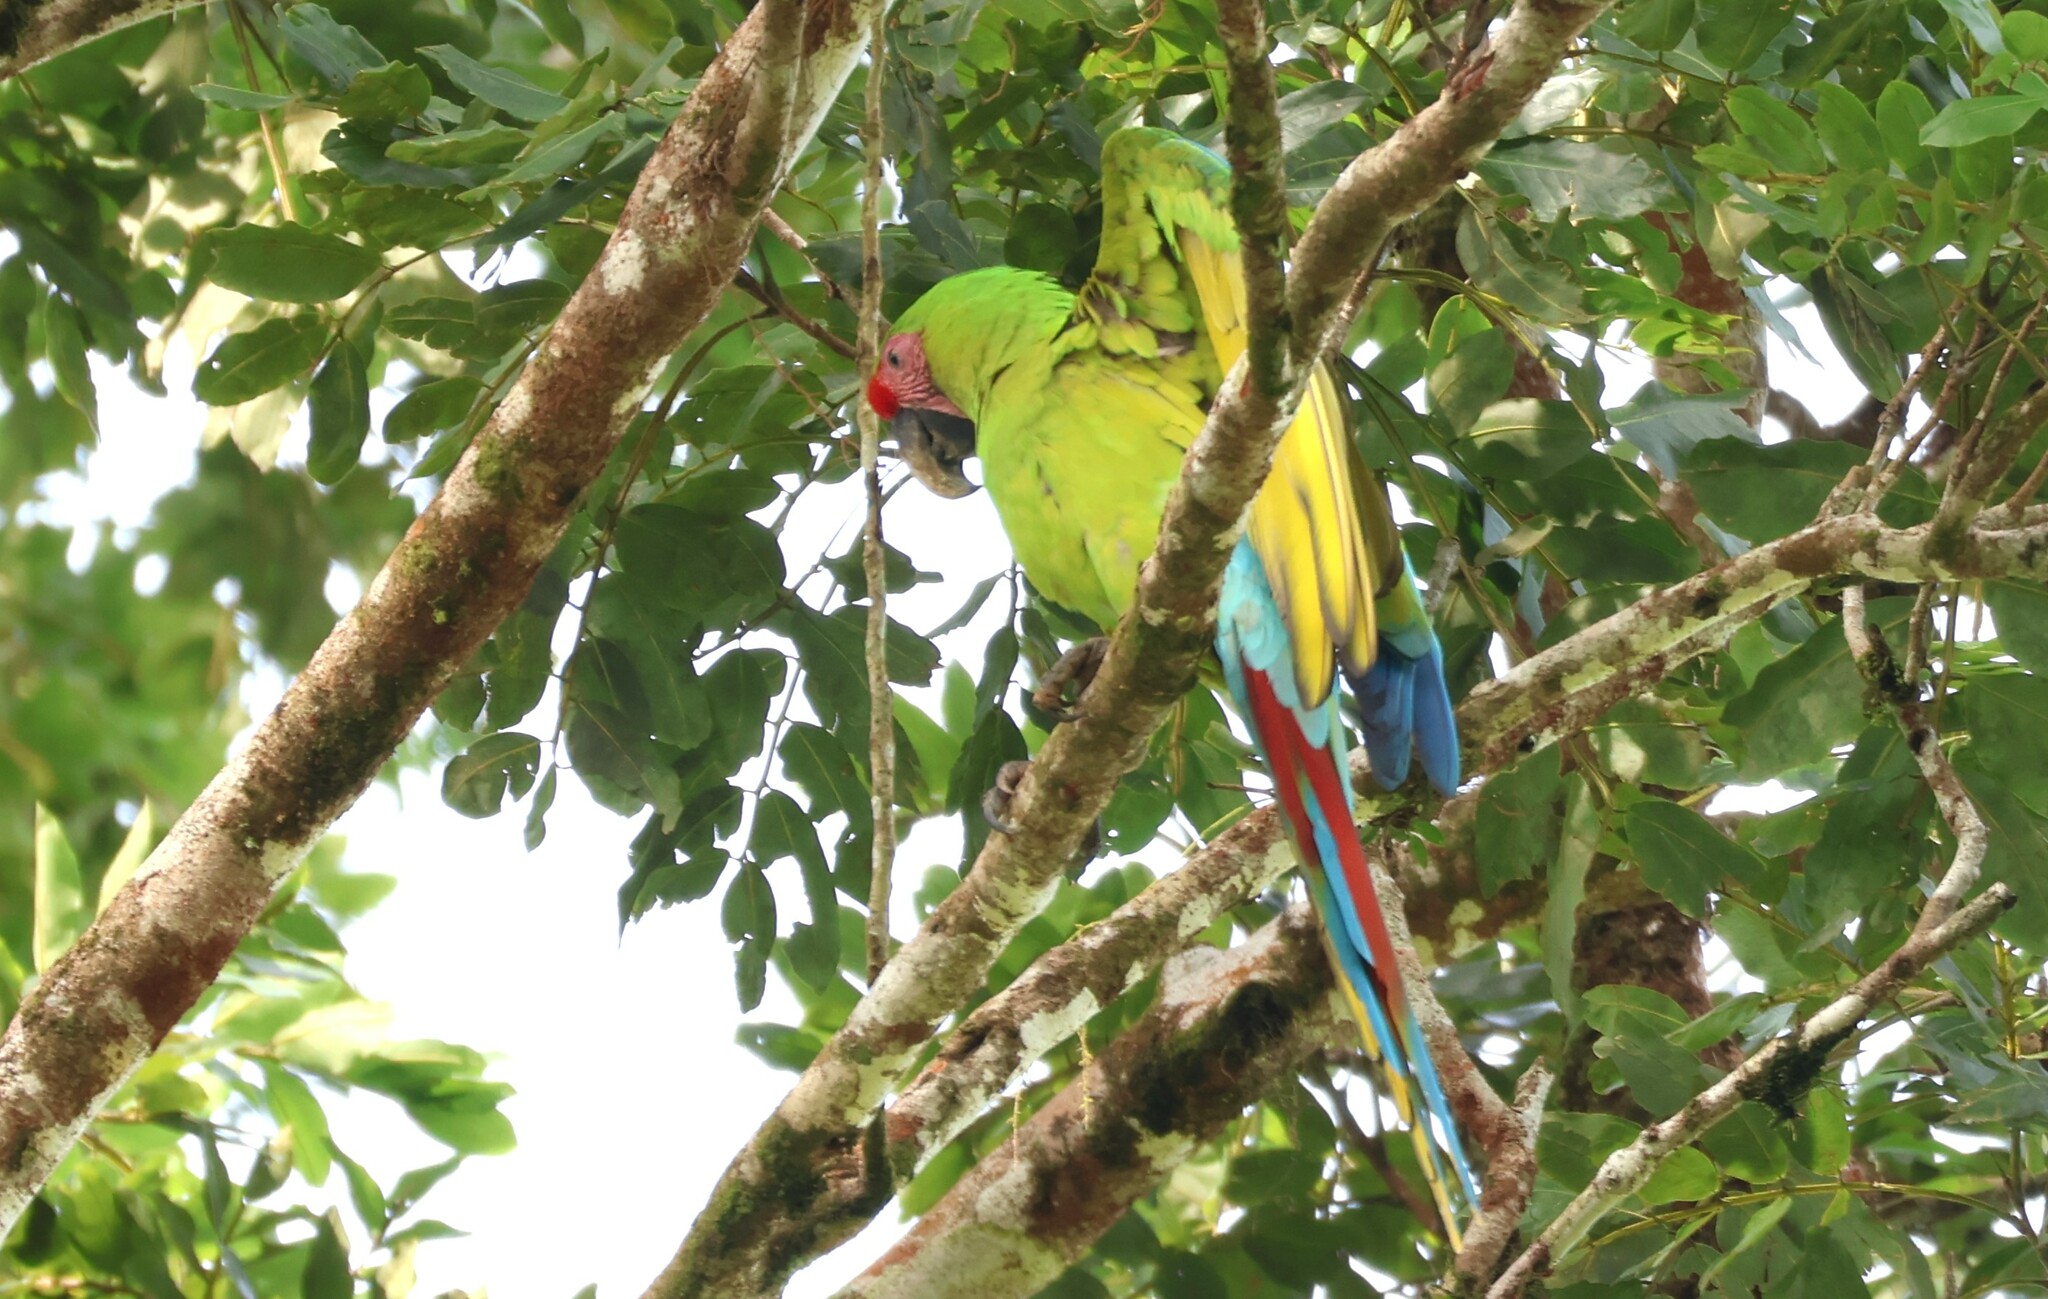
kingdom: Animalia
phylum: Chordata
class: Aves
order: Psittaciformes
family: Psittacidae
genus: Ara
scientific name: Ara ambiguus
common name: Great green macaw
